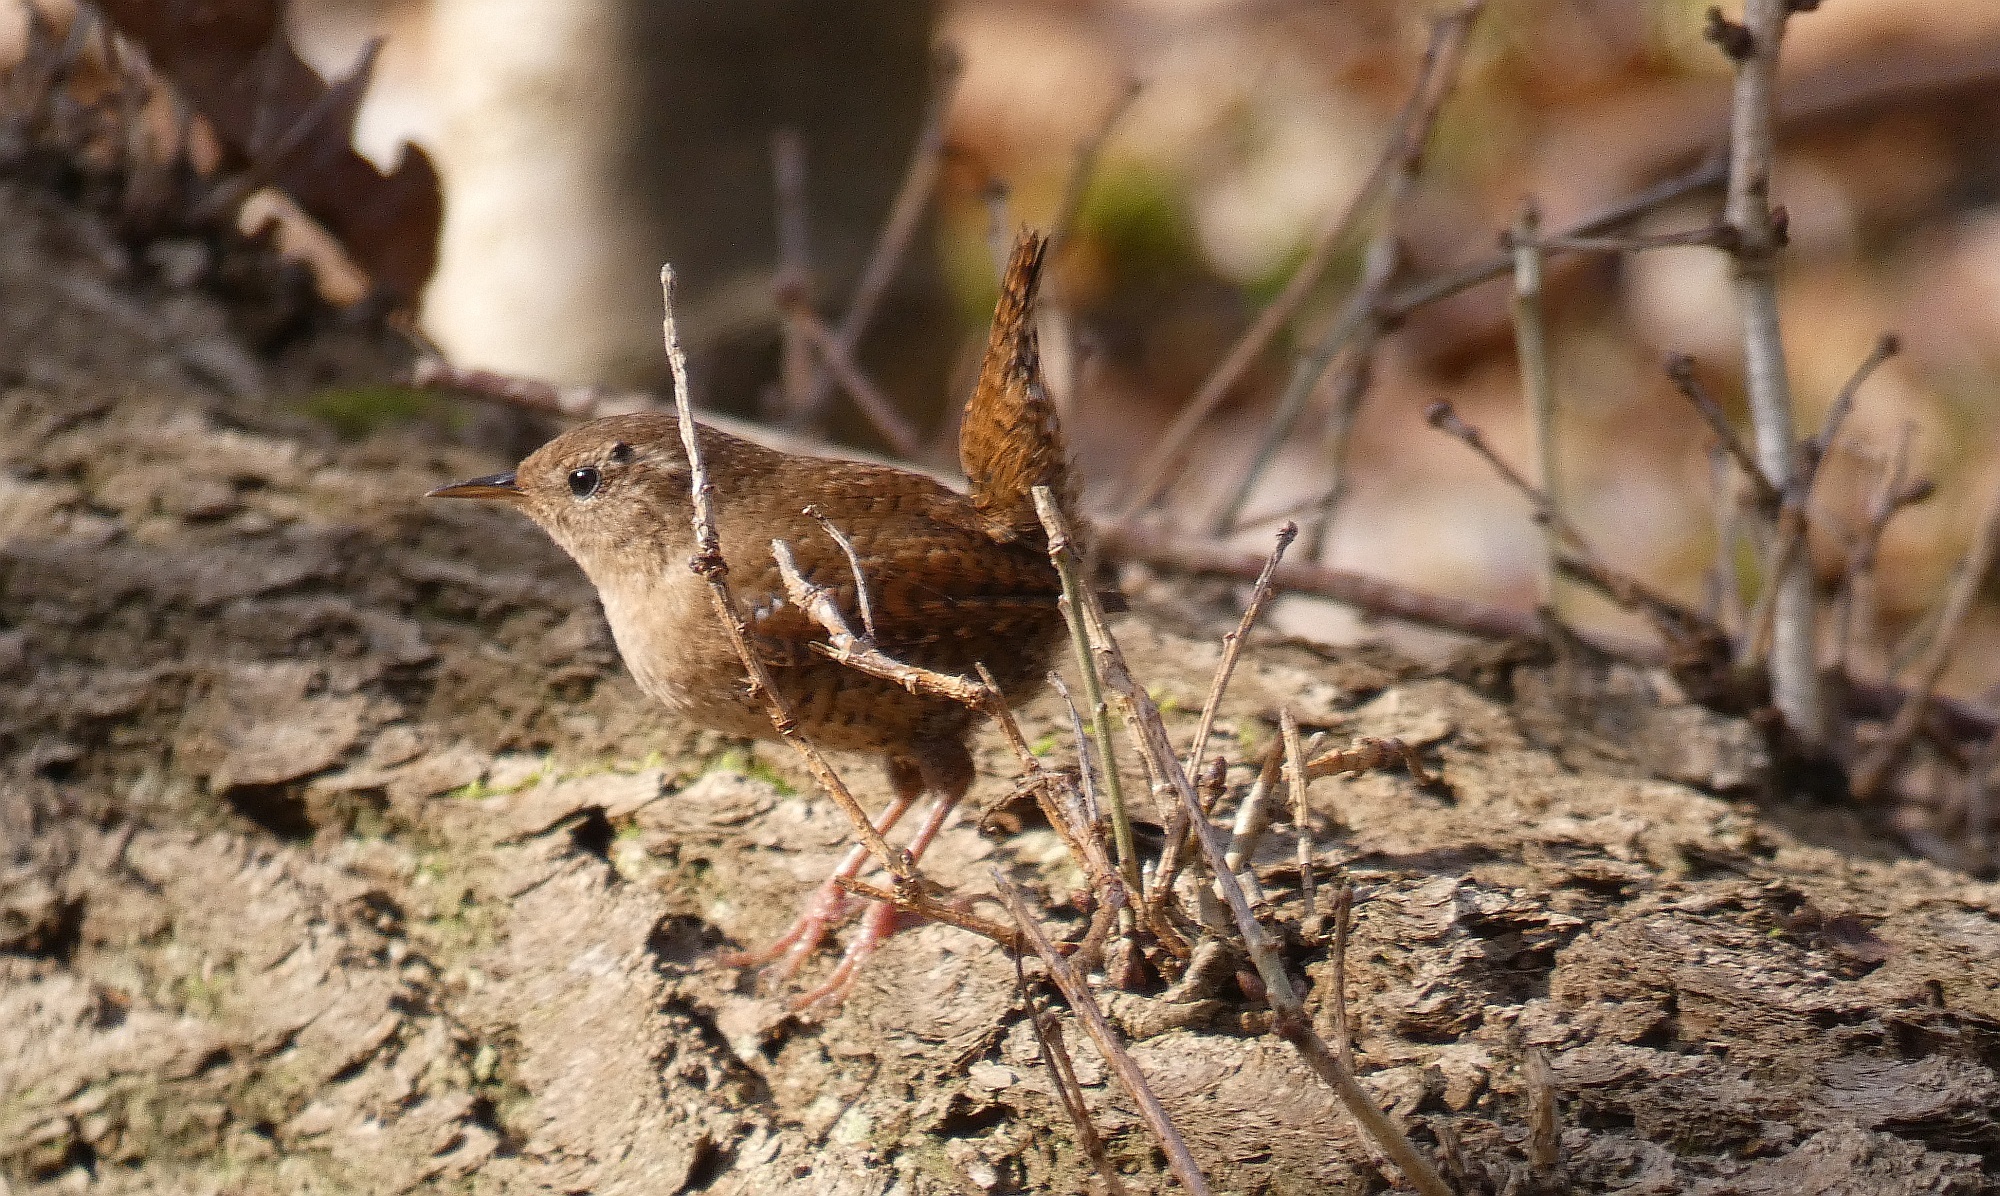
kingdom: Animalia
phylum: Chordata
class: Aves
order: Passeriformes
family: Troglodytidae
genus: Troglodytes
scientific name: Troglodytes troglodytes
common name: Eurasian wren
